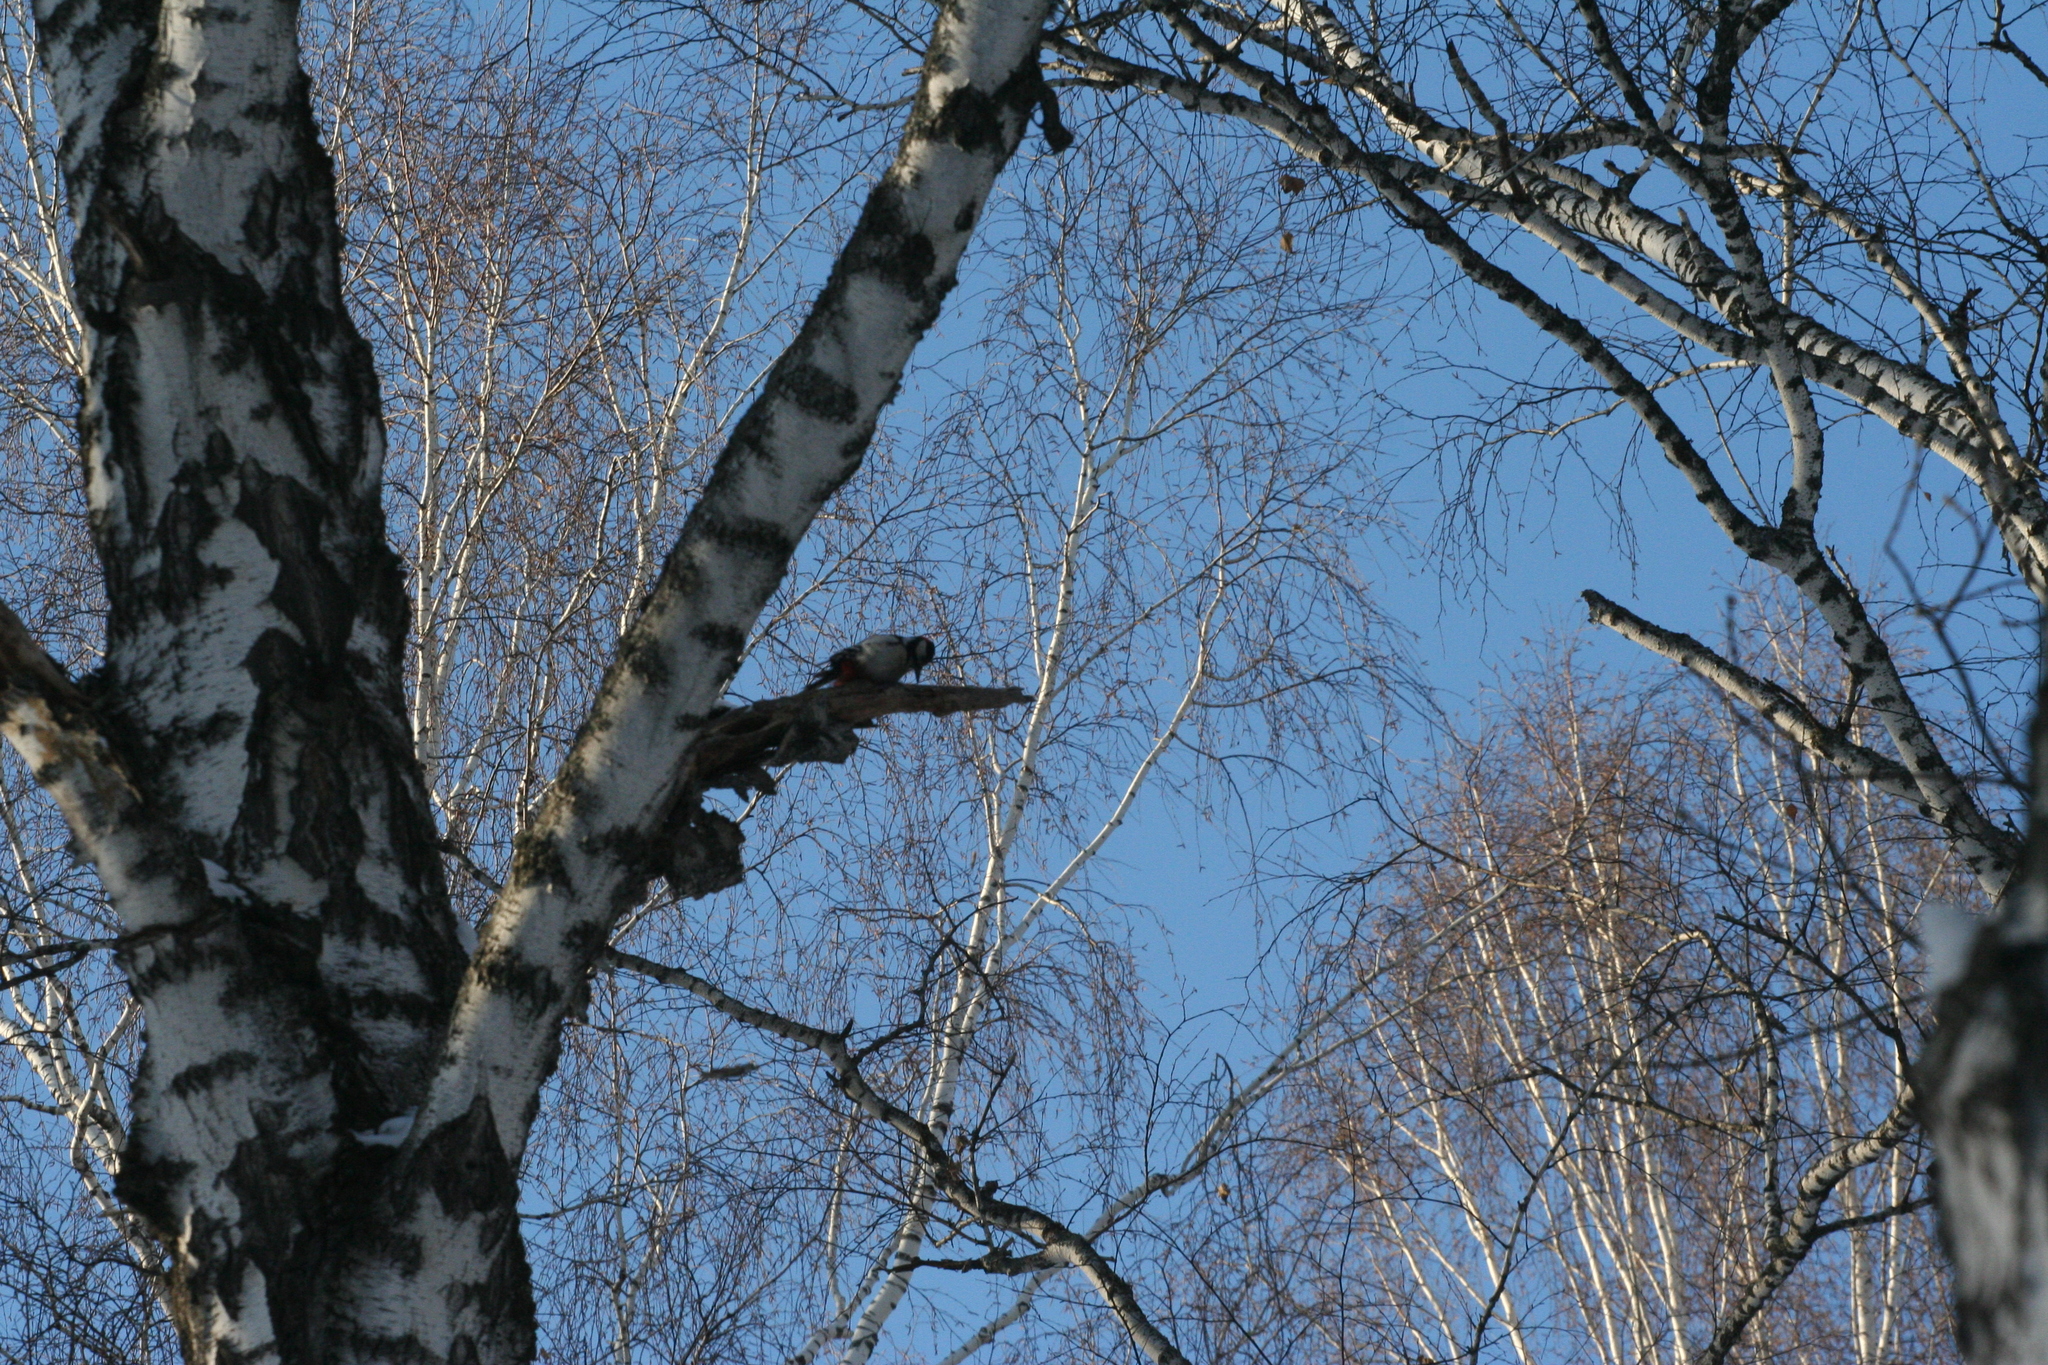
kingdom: Animalia
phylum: Chordata
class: Aves
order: Piciformes
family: Picidae
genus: Dendrocopos
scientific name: Dendrocopos major
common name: Great spotted woodpecker
